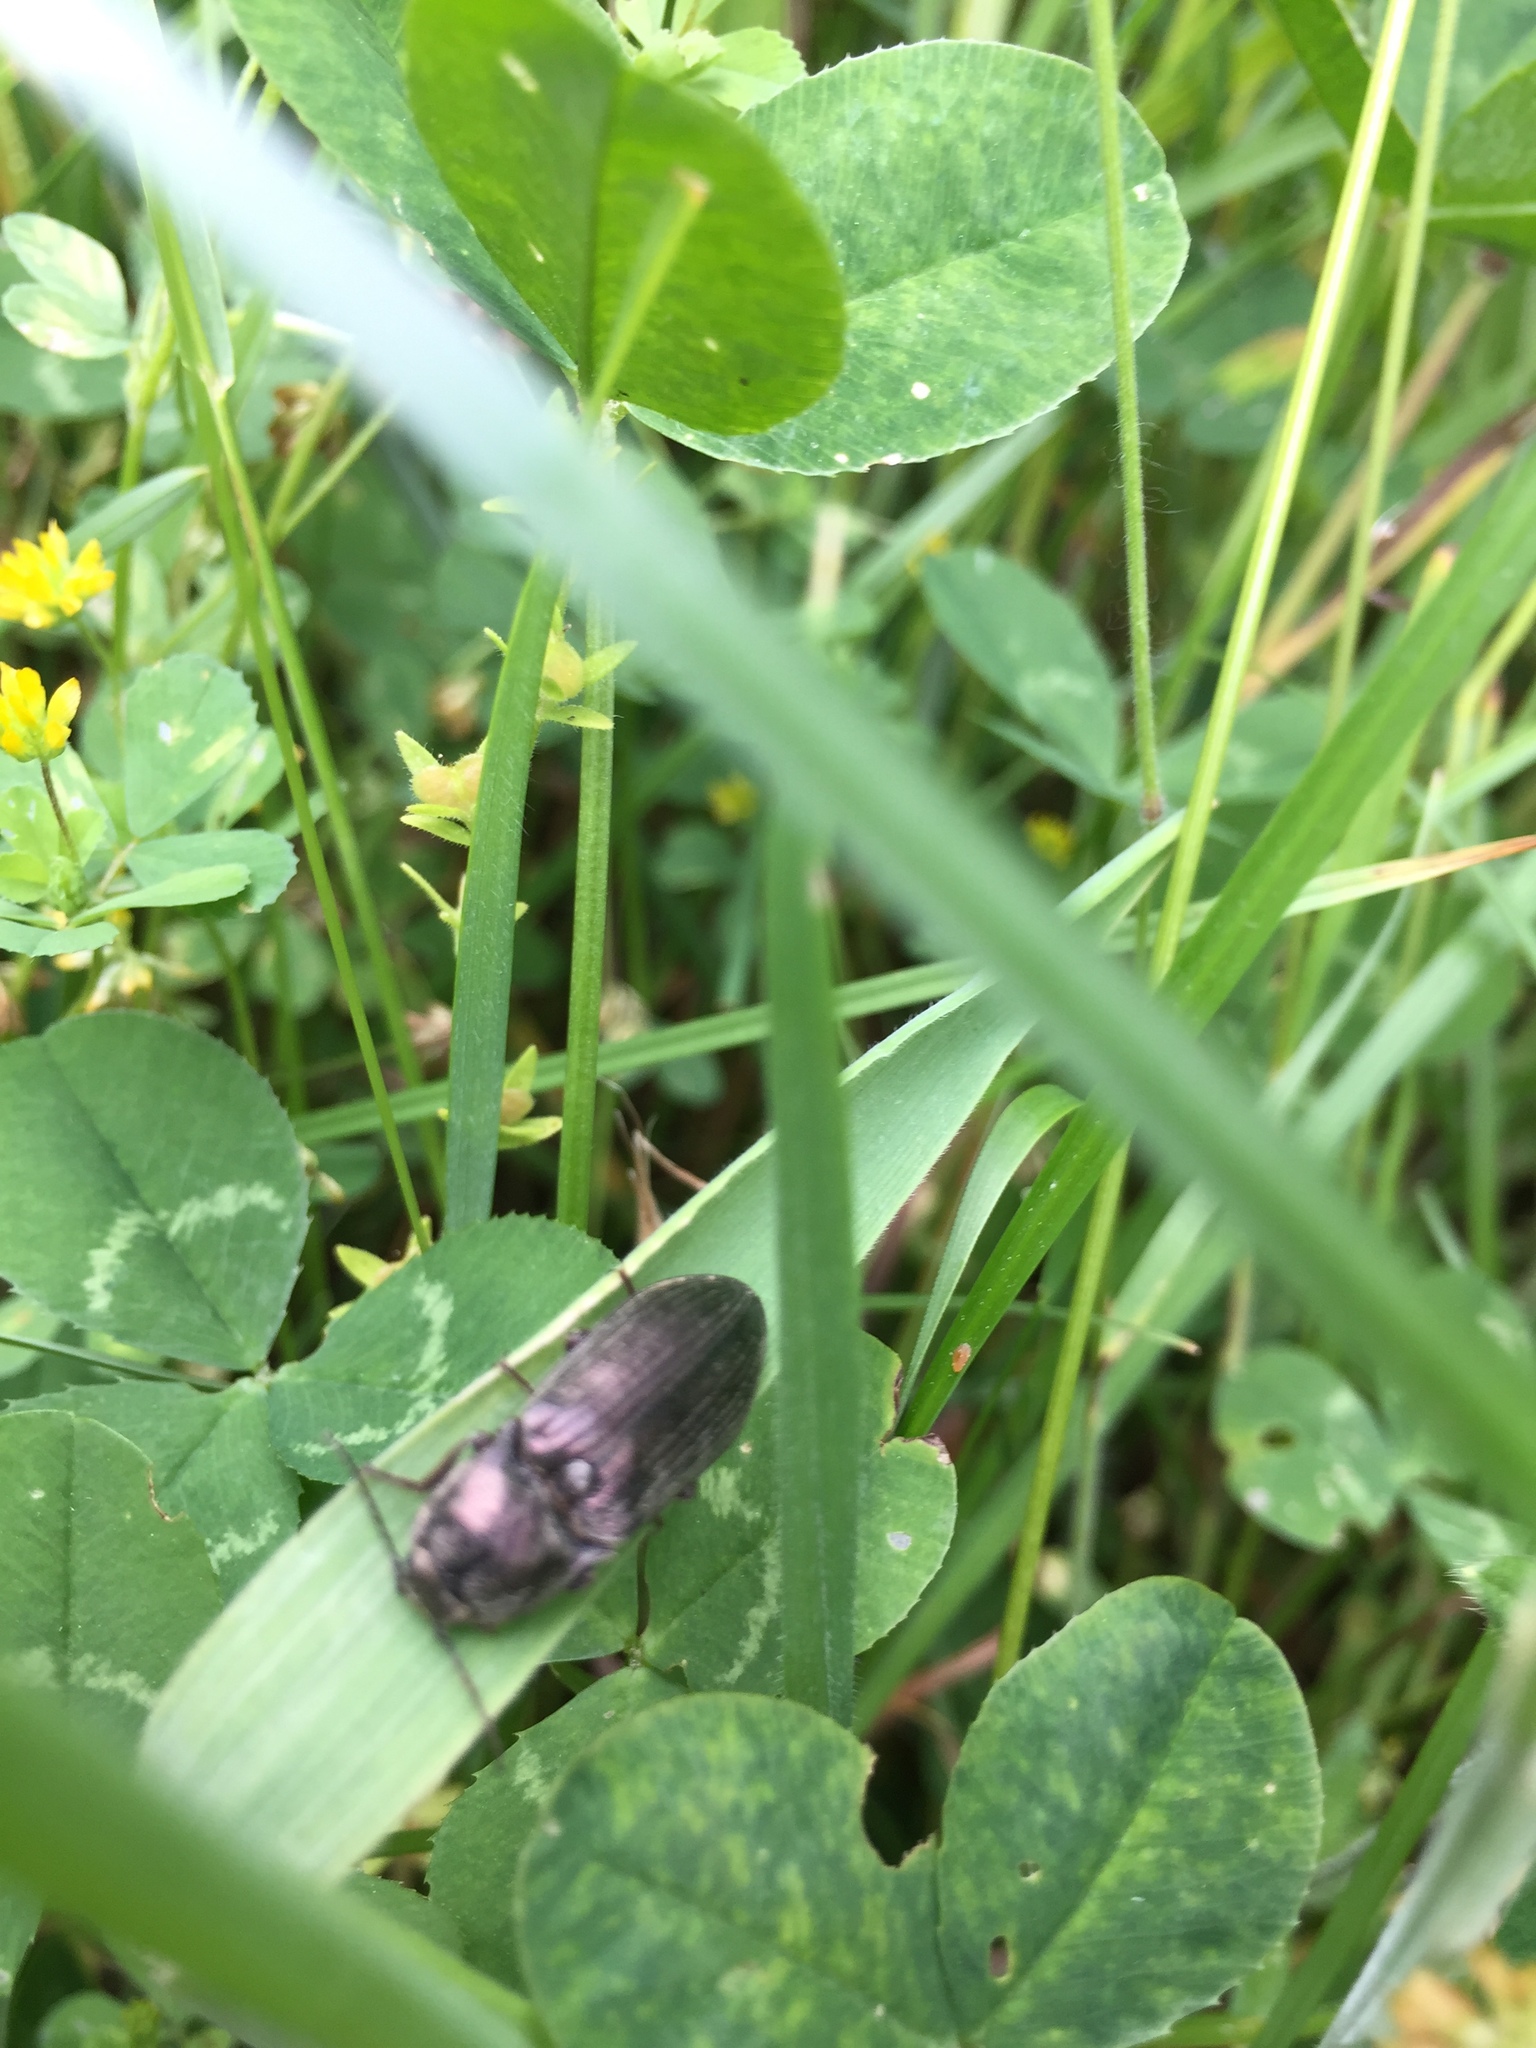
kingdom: Animalia
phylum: Arthropoda
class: Insecta
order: Coleoptera
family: Elateridae
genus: Selatosomus
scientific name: Selatosomus latus
